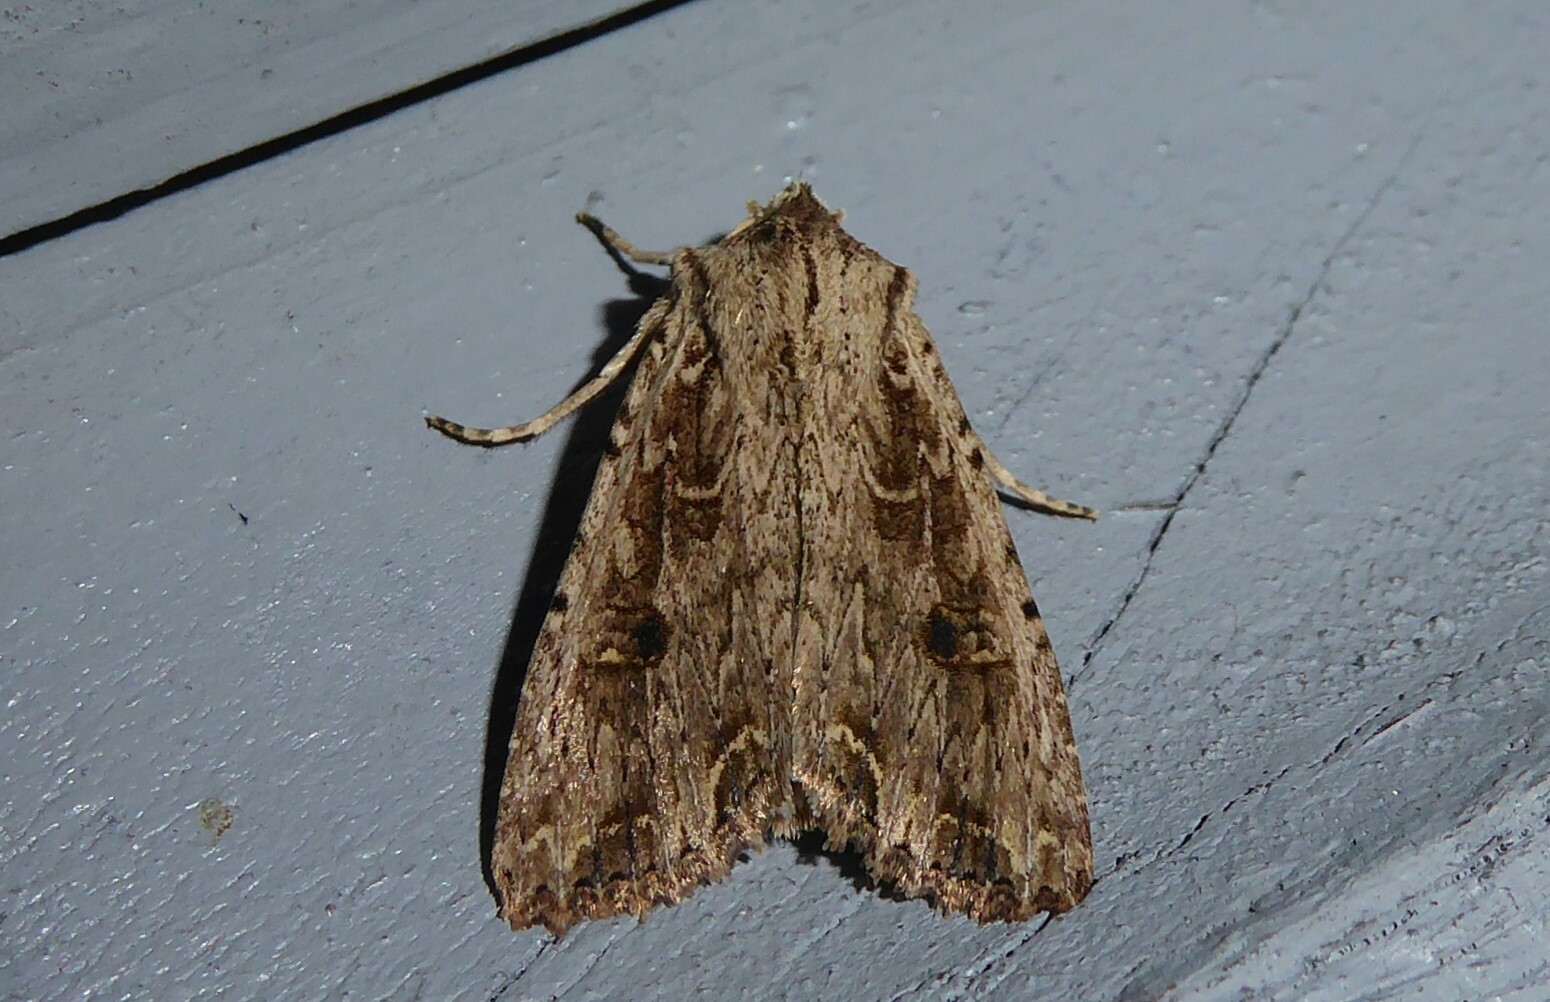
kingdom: Animalia
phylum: Arthropoda
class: Insecta
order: Lepidoptera
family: Noctuidae
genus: Ichneutica
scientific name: Ichneutica lignana
